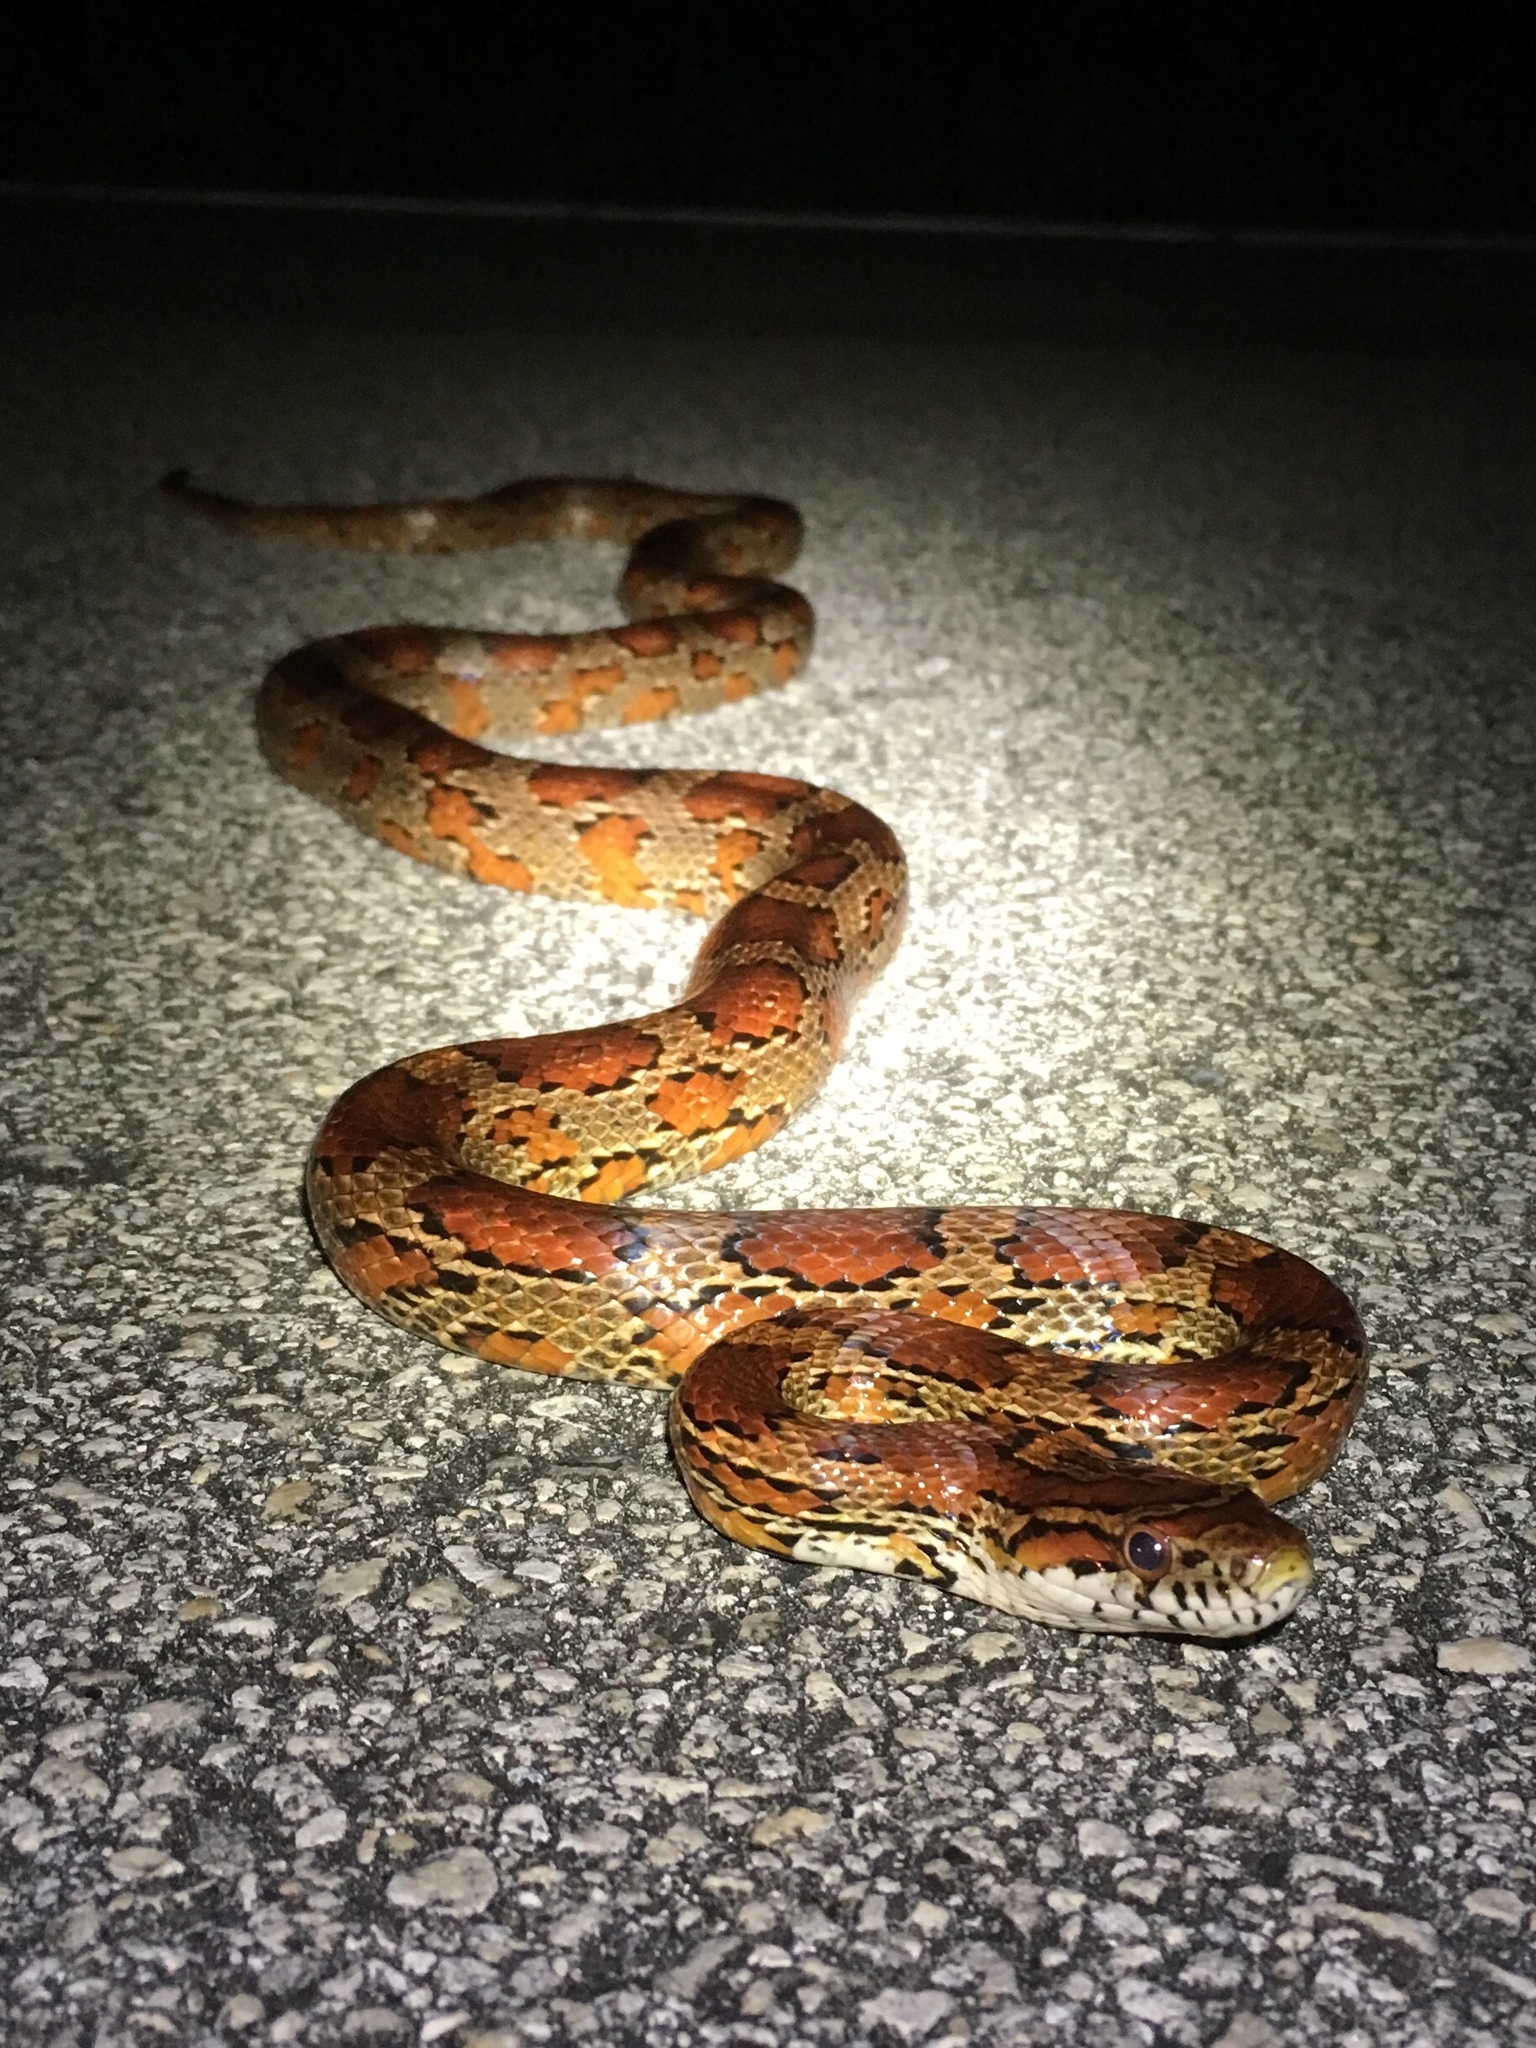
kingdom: Animalia
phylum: Chordata
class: Squamata
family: Colubridae
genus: Pantherophis
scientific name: Pantherophis guttatus
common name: Red cornsnake
